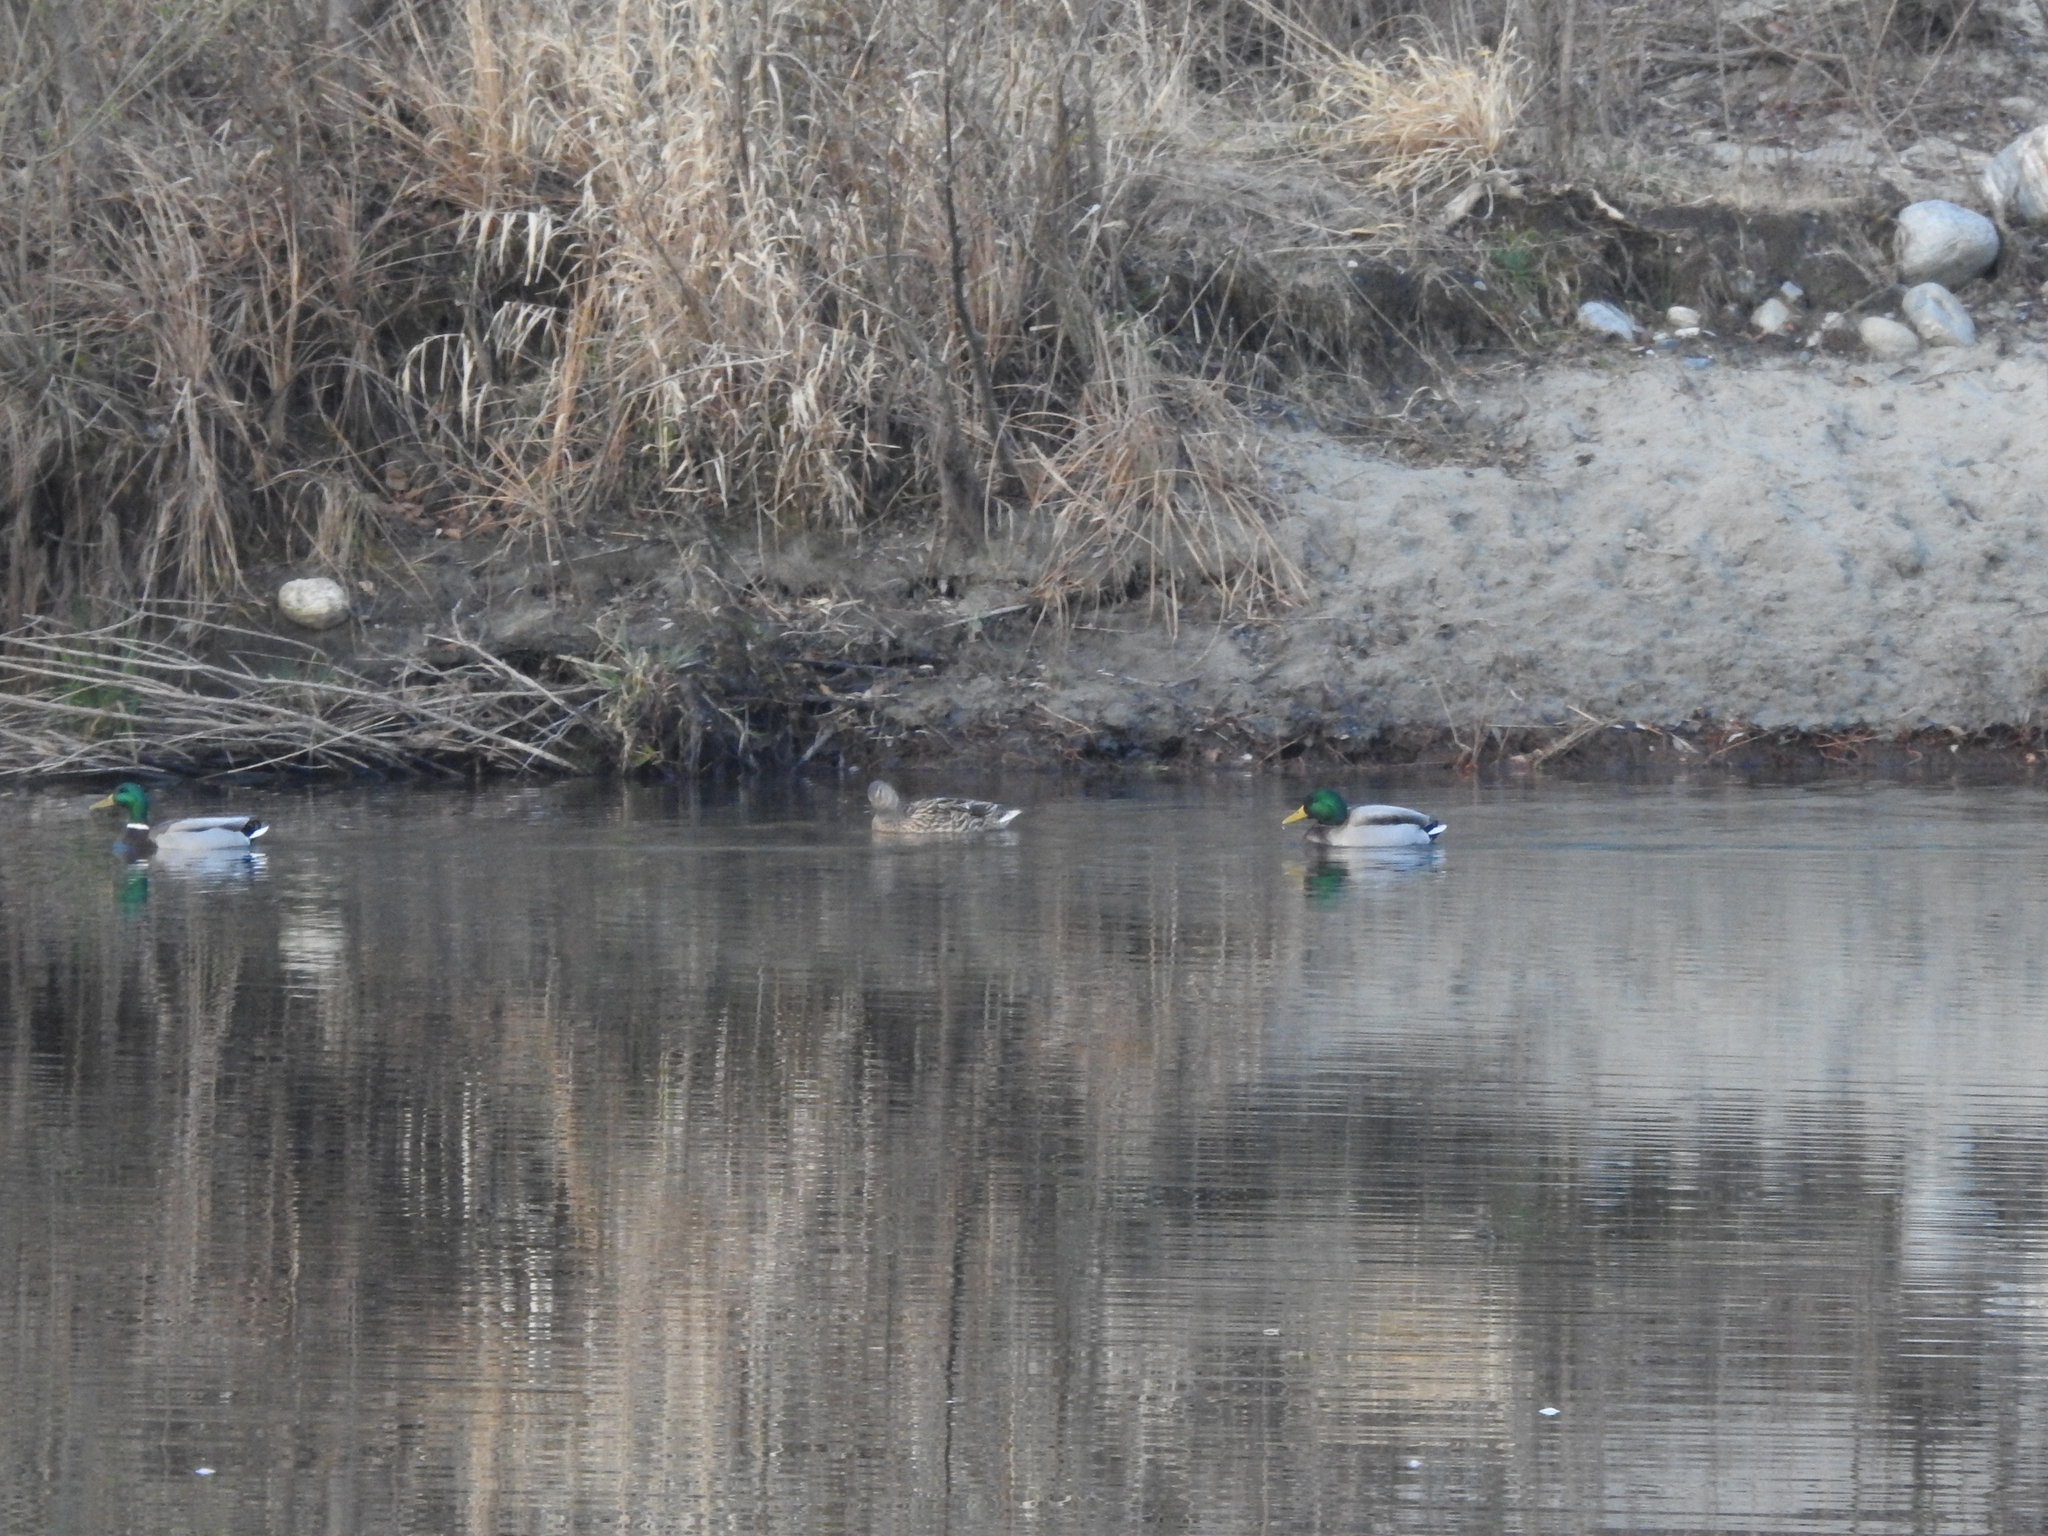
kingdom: Animalia
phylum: Chordata
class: Aves
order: Anseriformes
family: Anatidae
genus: Anas
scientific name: Anas platyrhynchos
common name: Mallard
